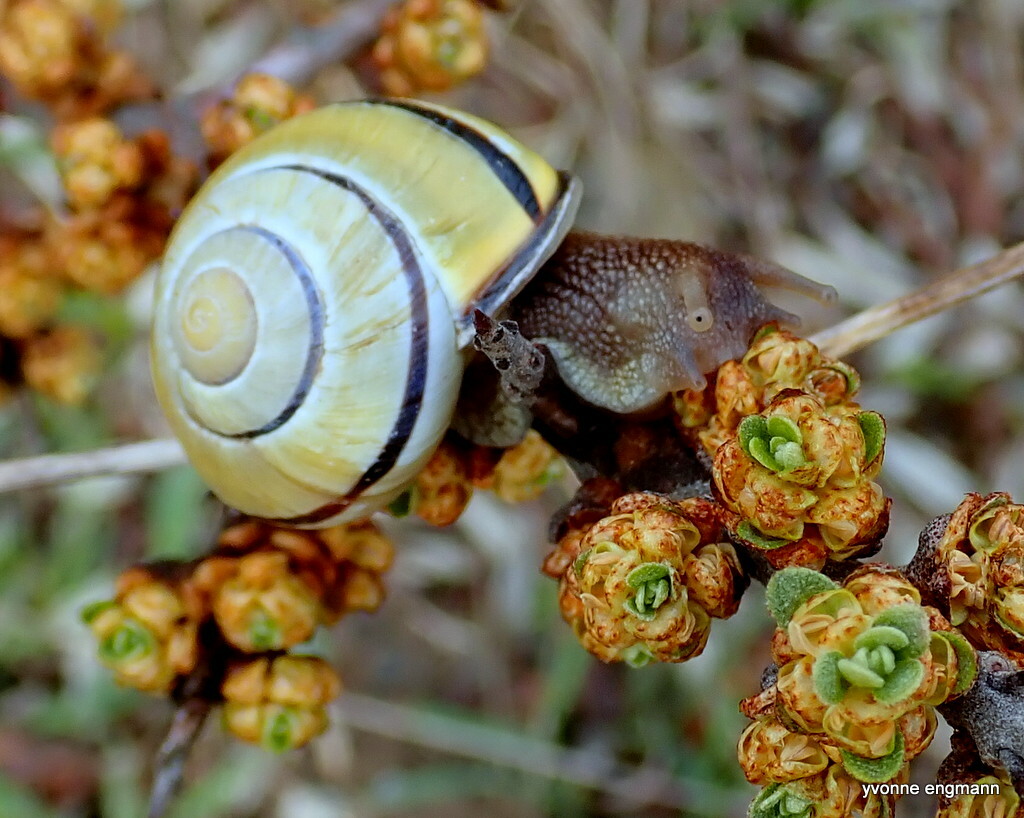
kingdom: Animalia
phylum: Mollusca
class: Gastropoda
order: Stylommatophora
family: Helicidae
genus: Cepaea
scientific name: Cepaea nemoralis
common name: Grovesnail
